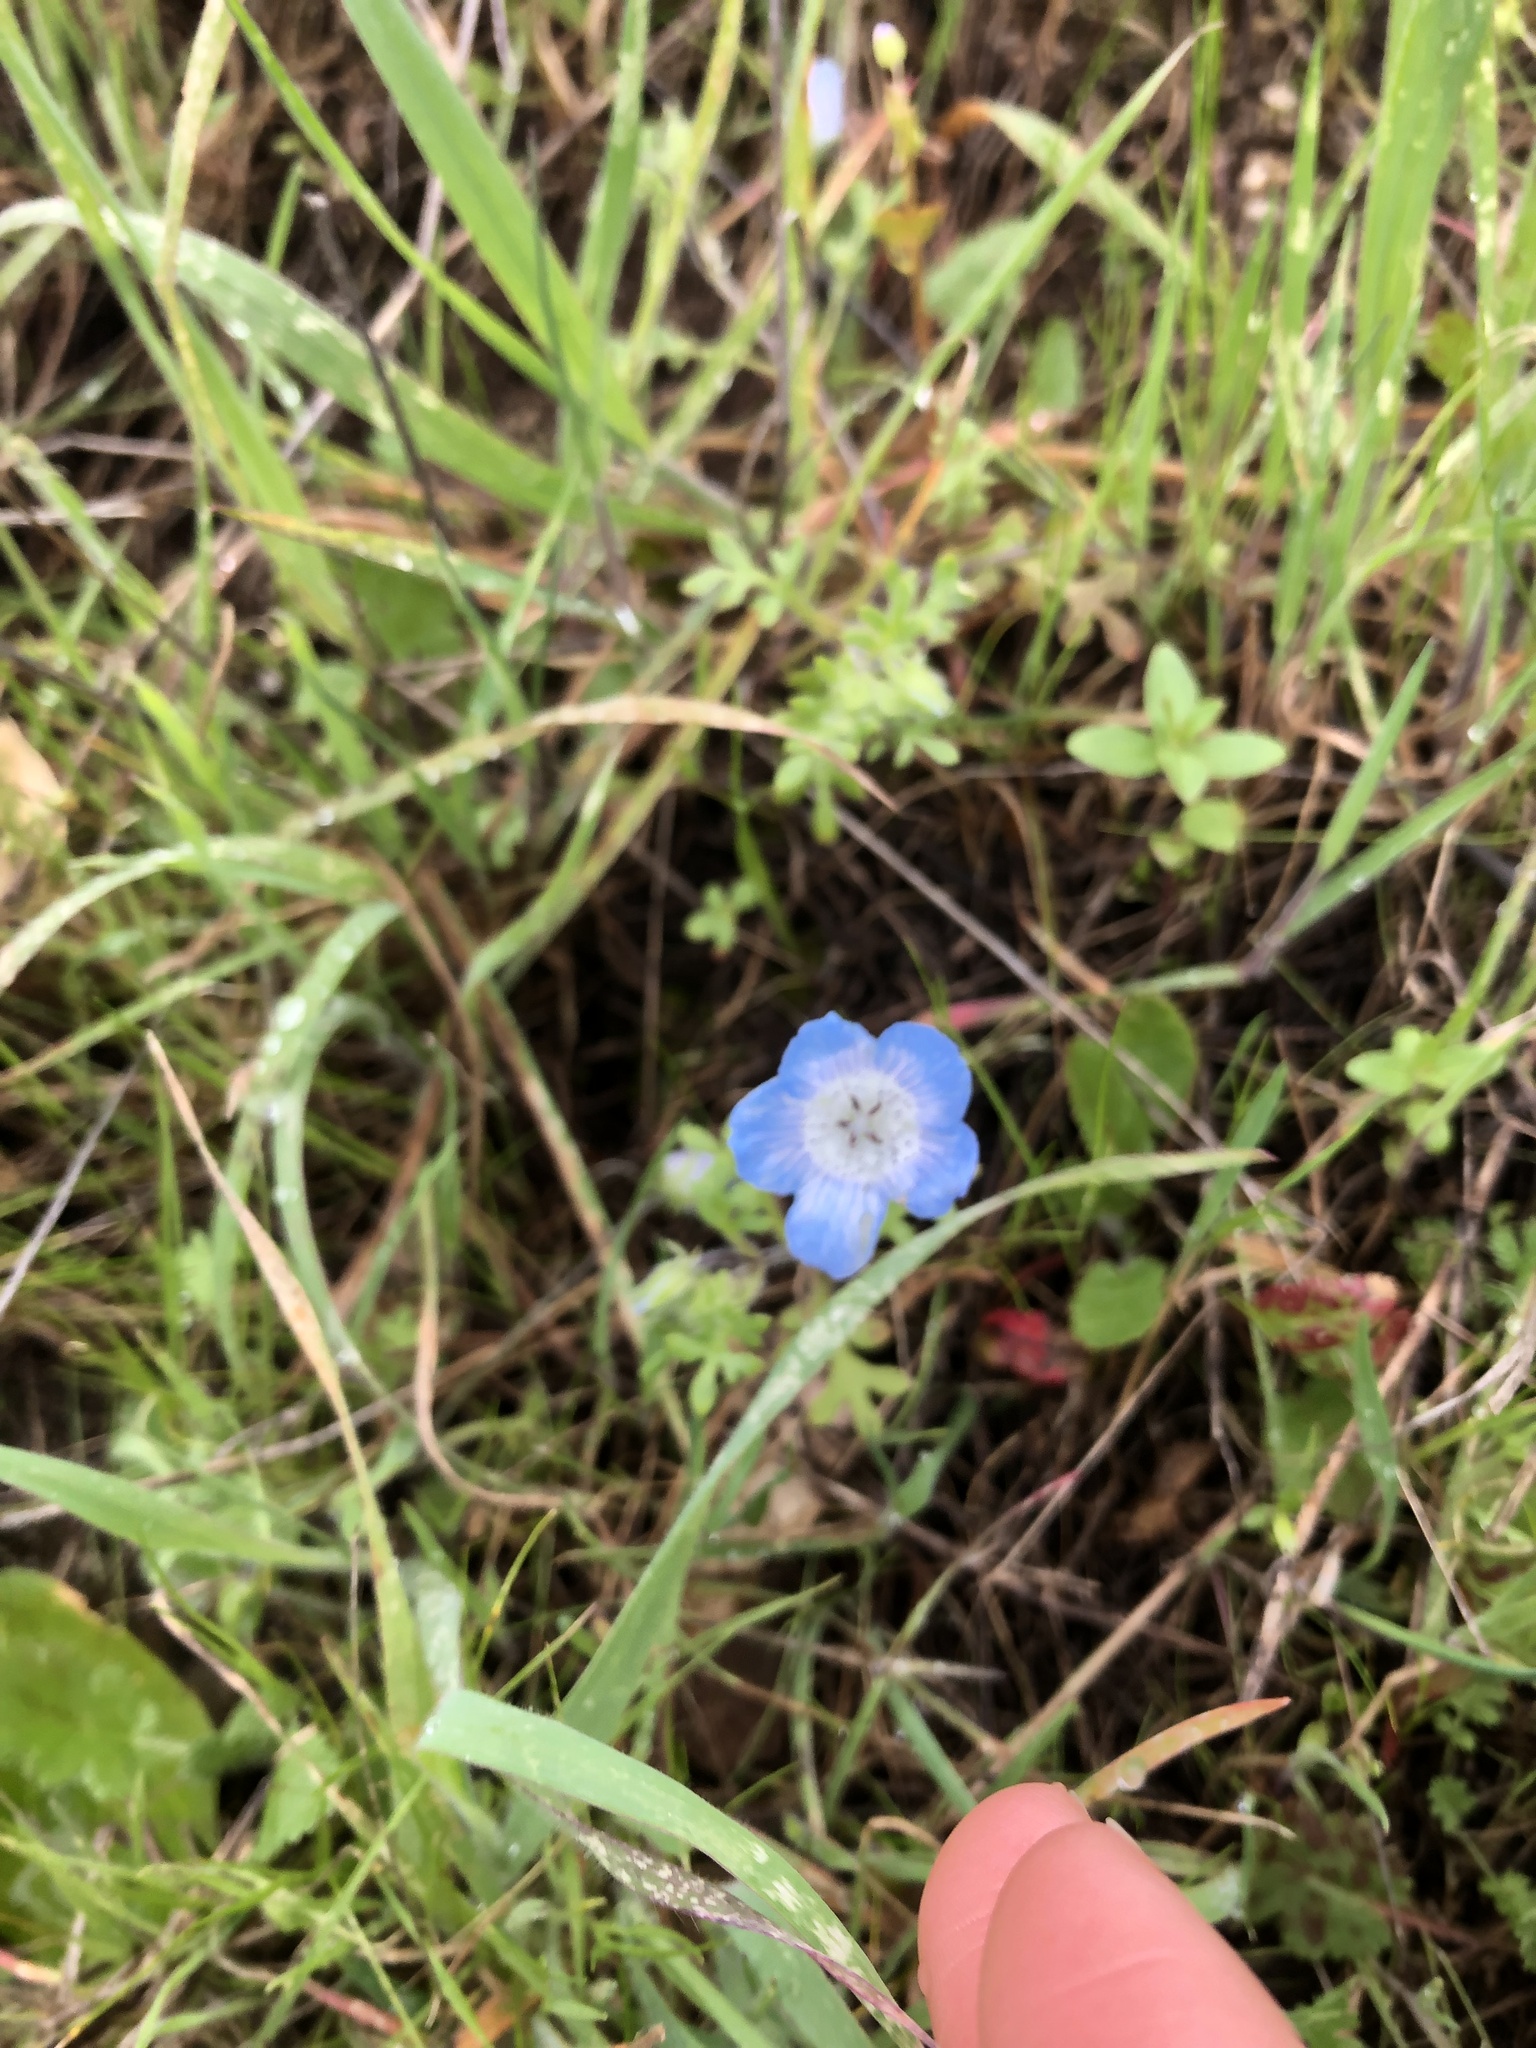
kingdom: Plantae
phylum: Tracheophyta
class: Magnoliopsida
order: Boraginales
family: Hydrophyllaceae
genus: Nemophila
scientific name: Nemophila menziesii
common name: Baby's-blue-eyes
